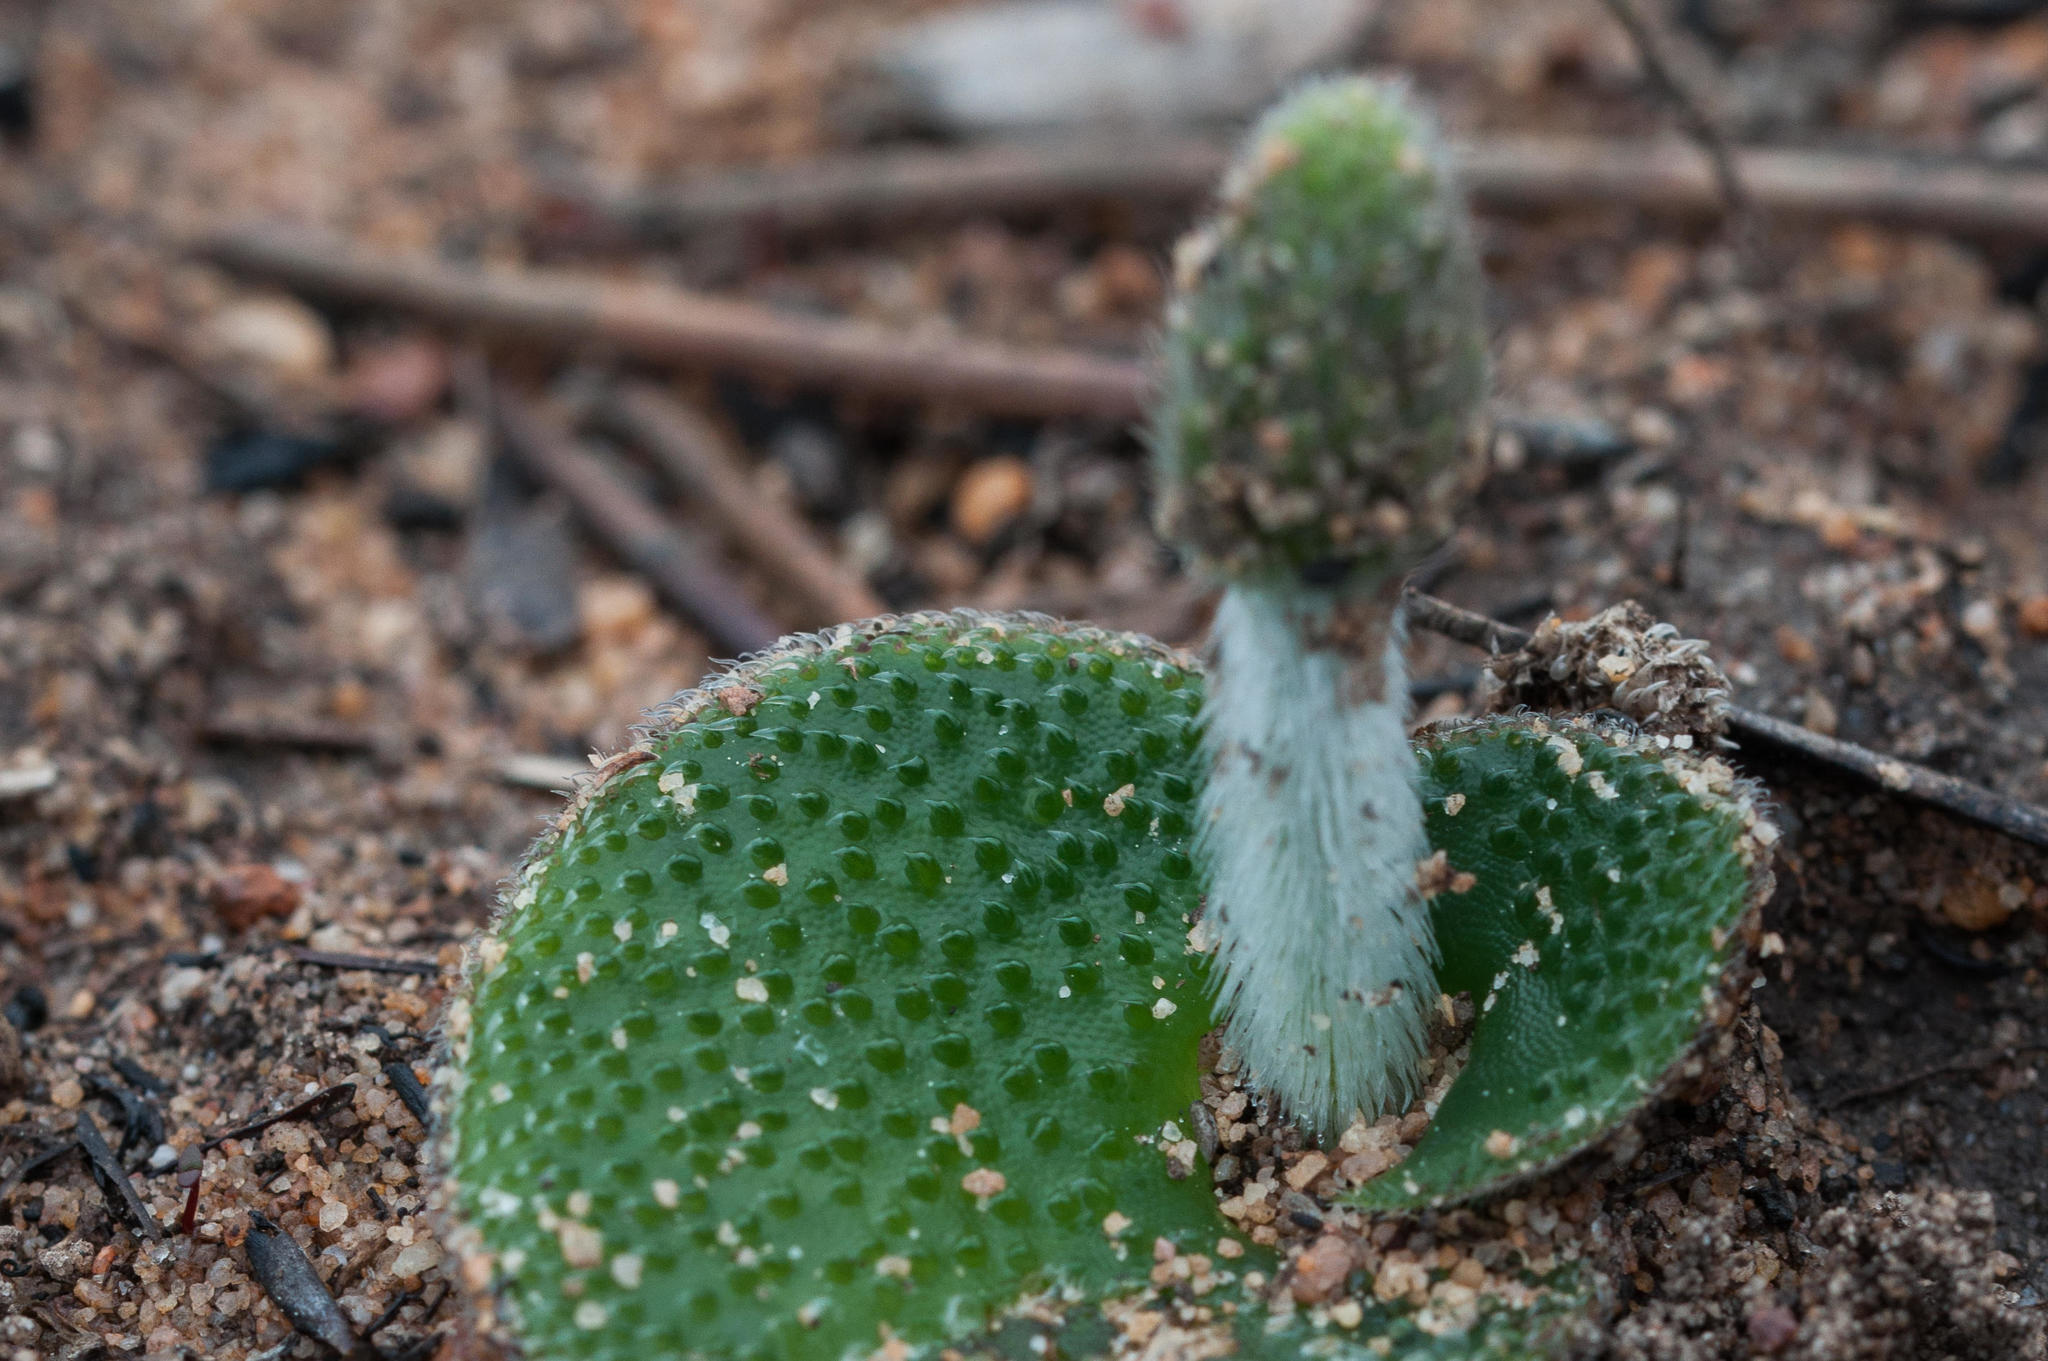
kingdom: Plantae
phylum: Tracheophyta
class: Liliopsida
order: Asparagales
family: Orchidaceae
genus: Holothrix
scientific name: Holothrix cernua
